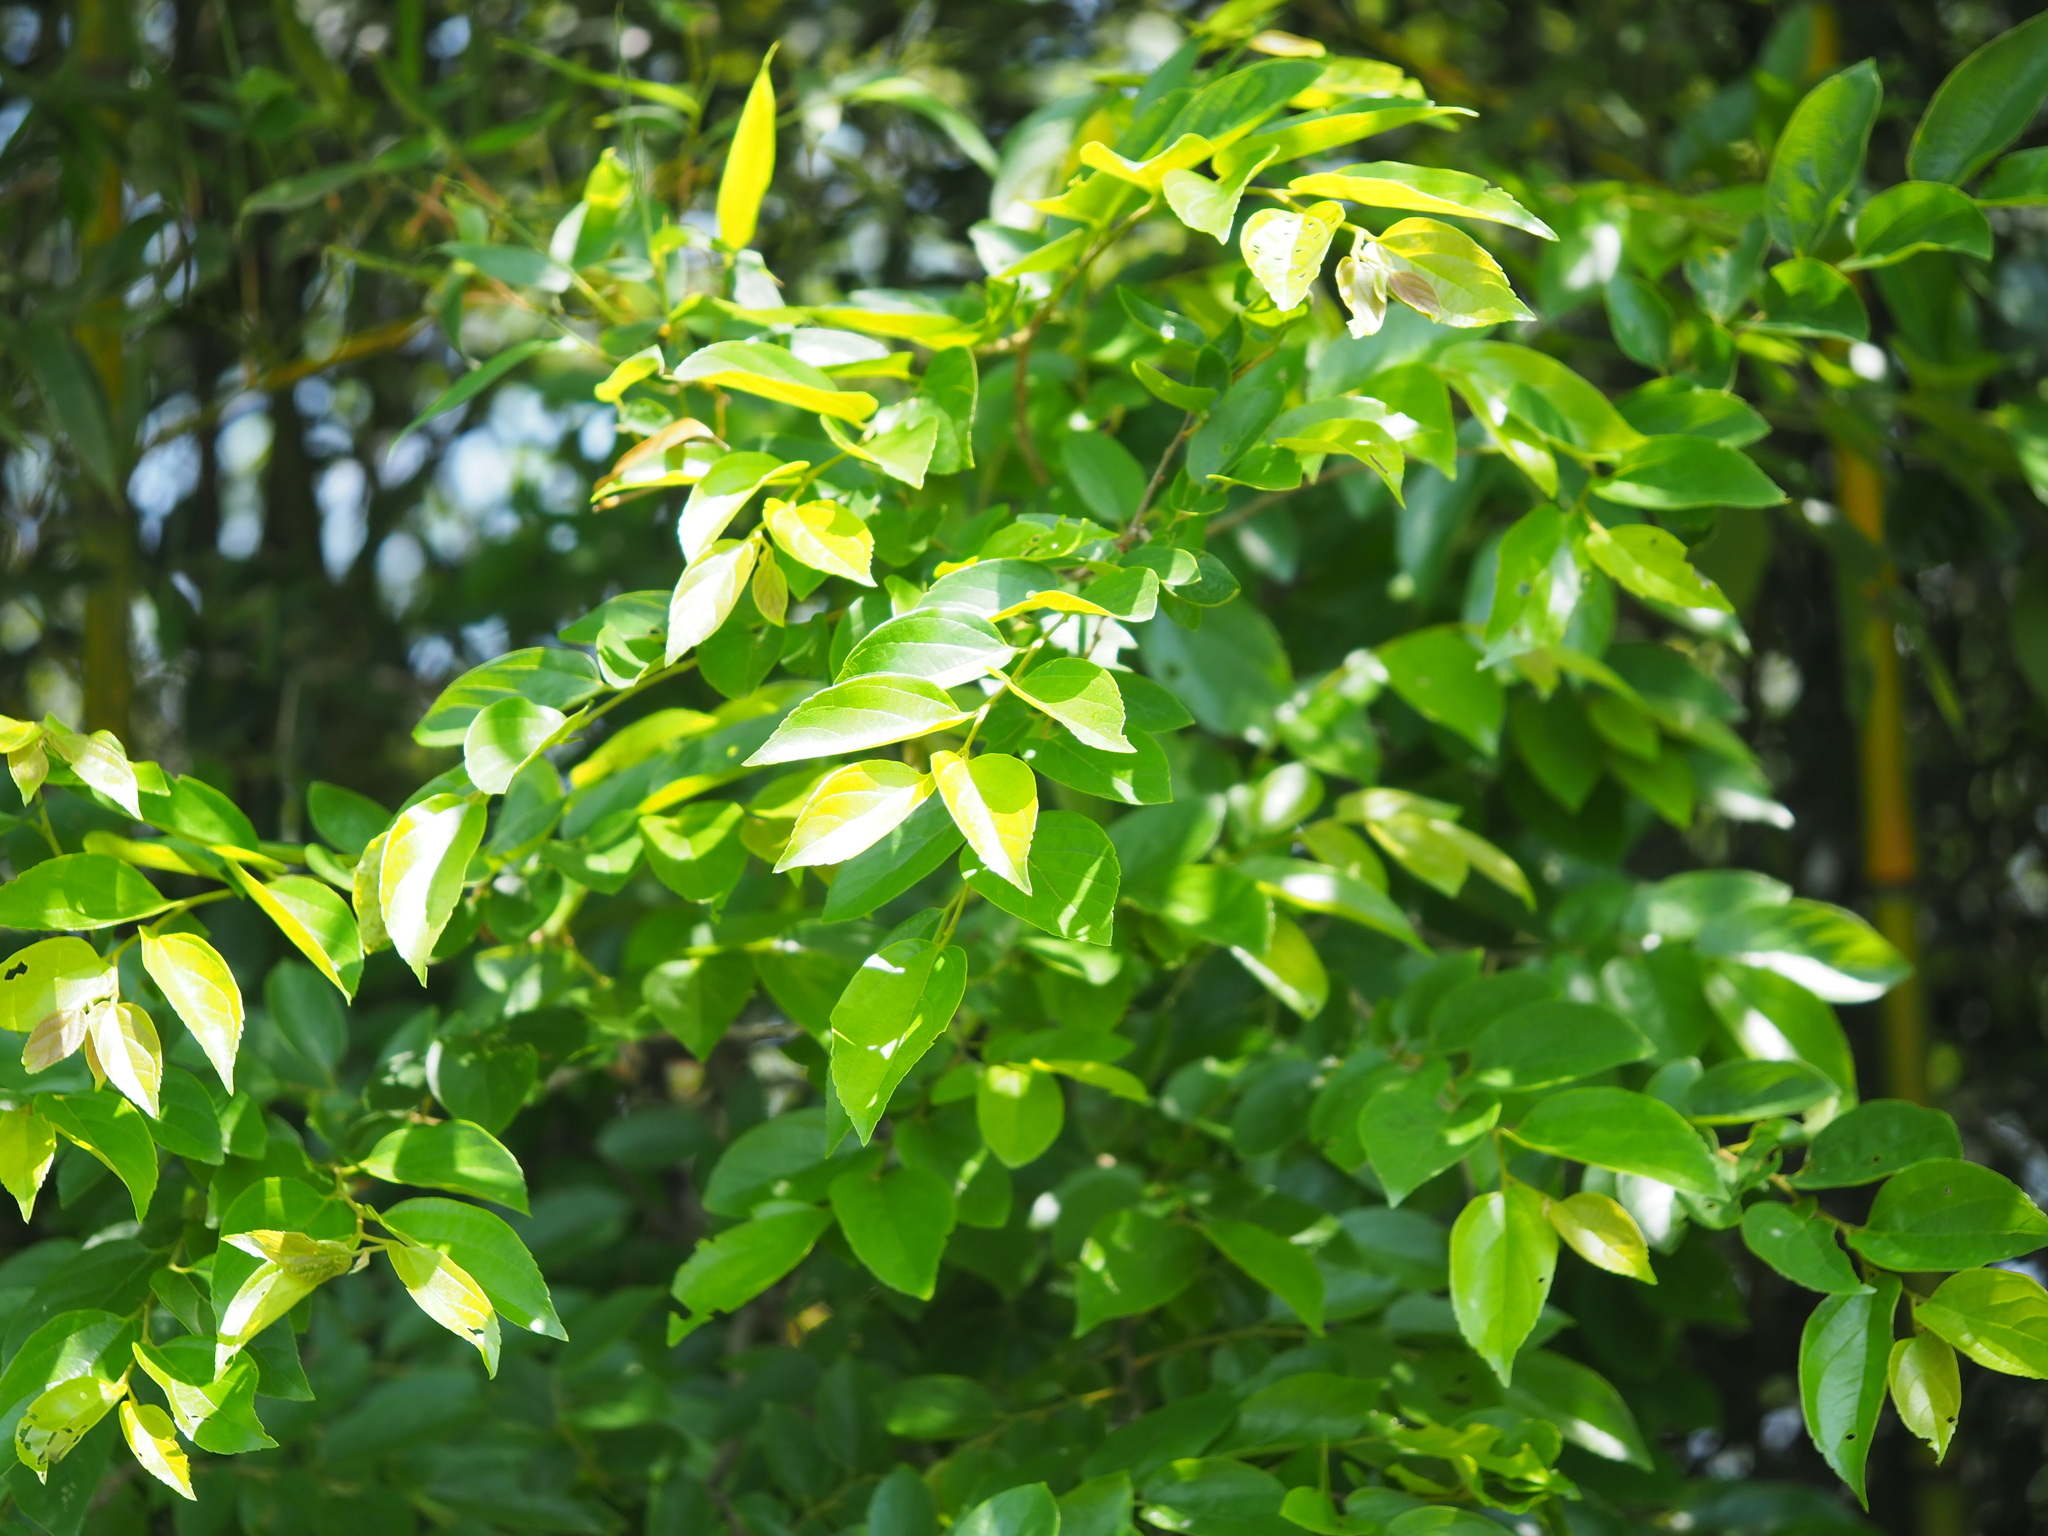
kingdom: Plantae
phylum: Tracheophyta
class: Magnoliopsida
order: Rosales
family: Cannabaceae
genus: Celtis
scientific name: Celtis sinensis
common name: Chinese hackberry
